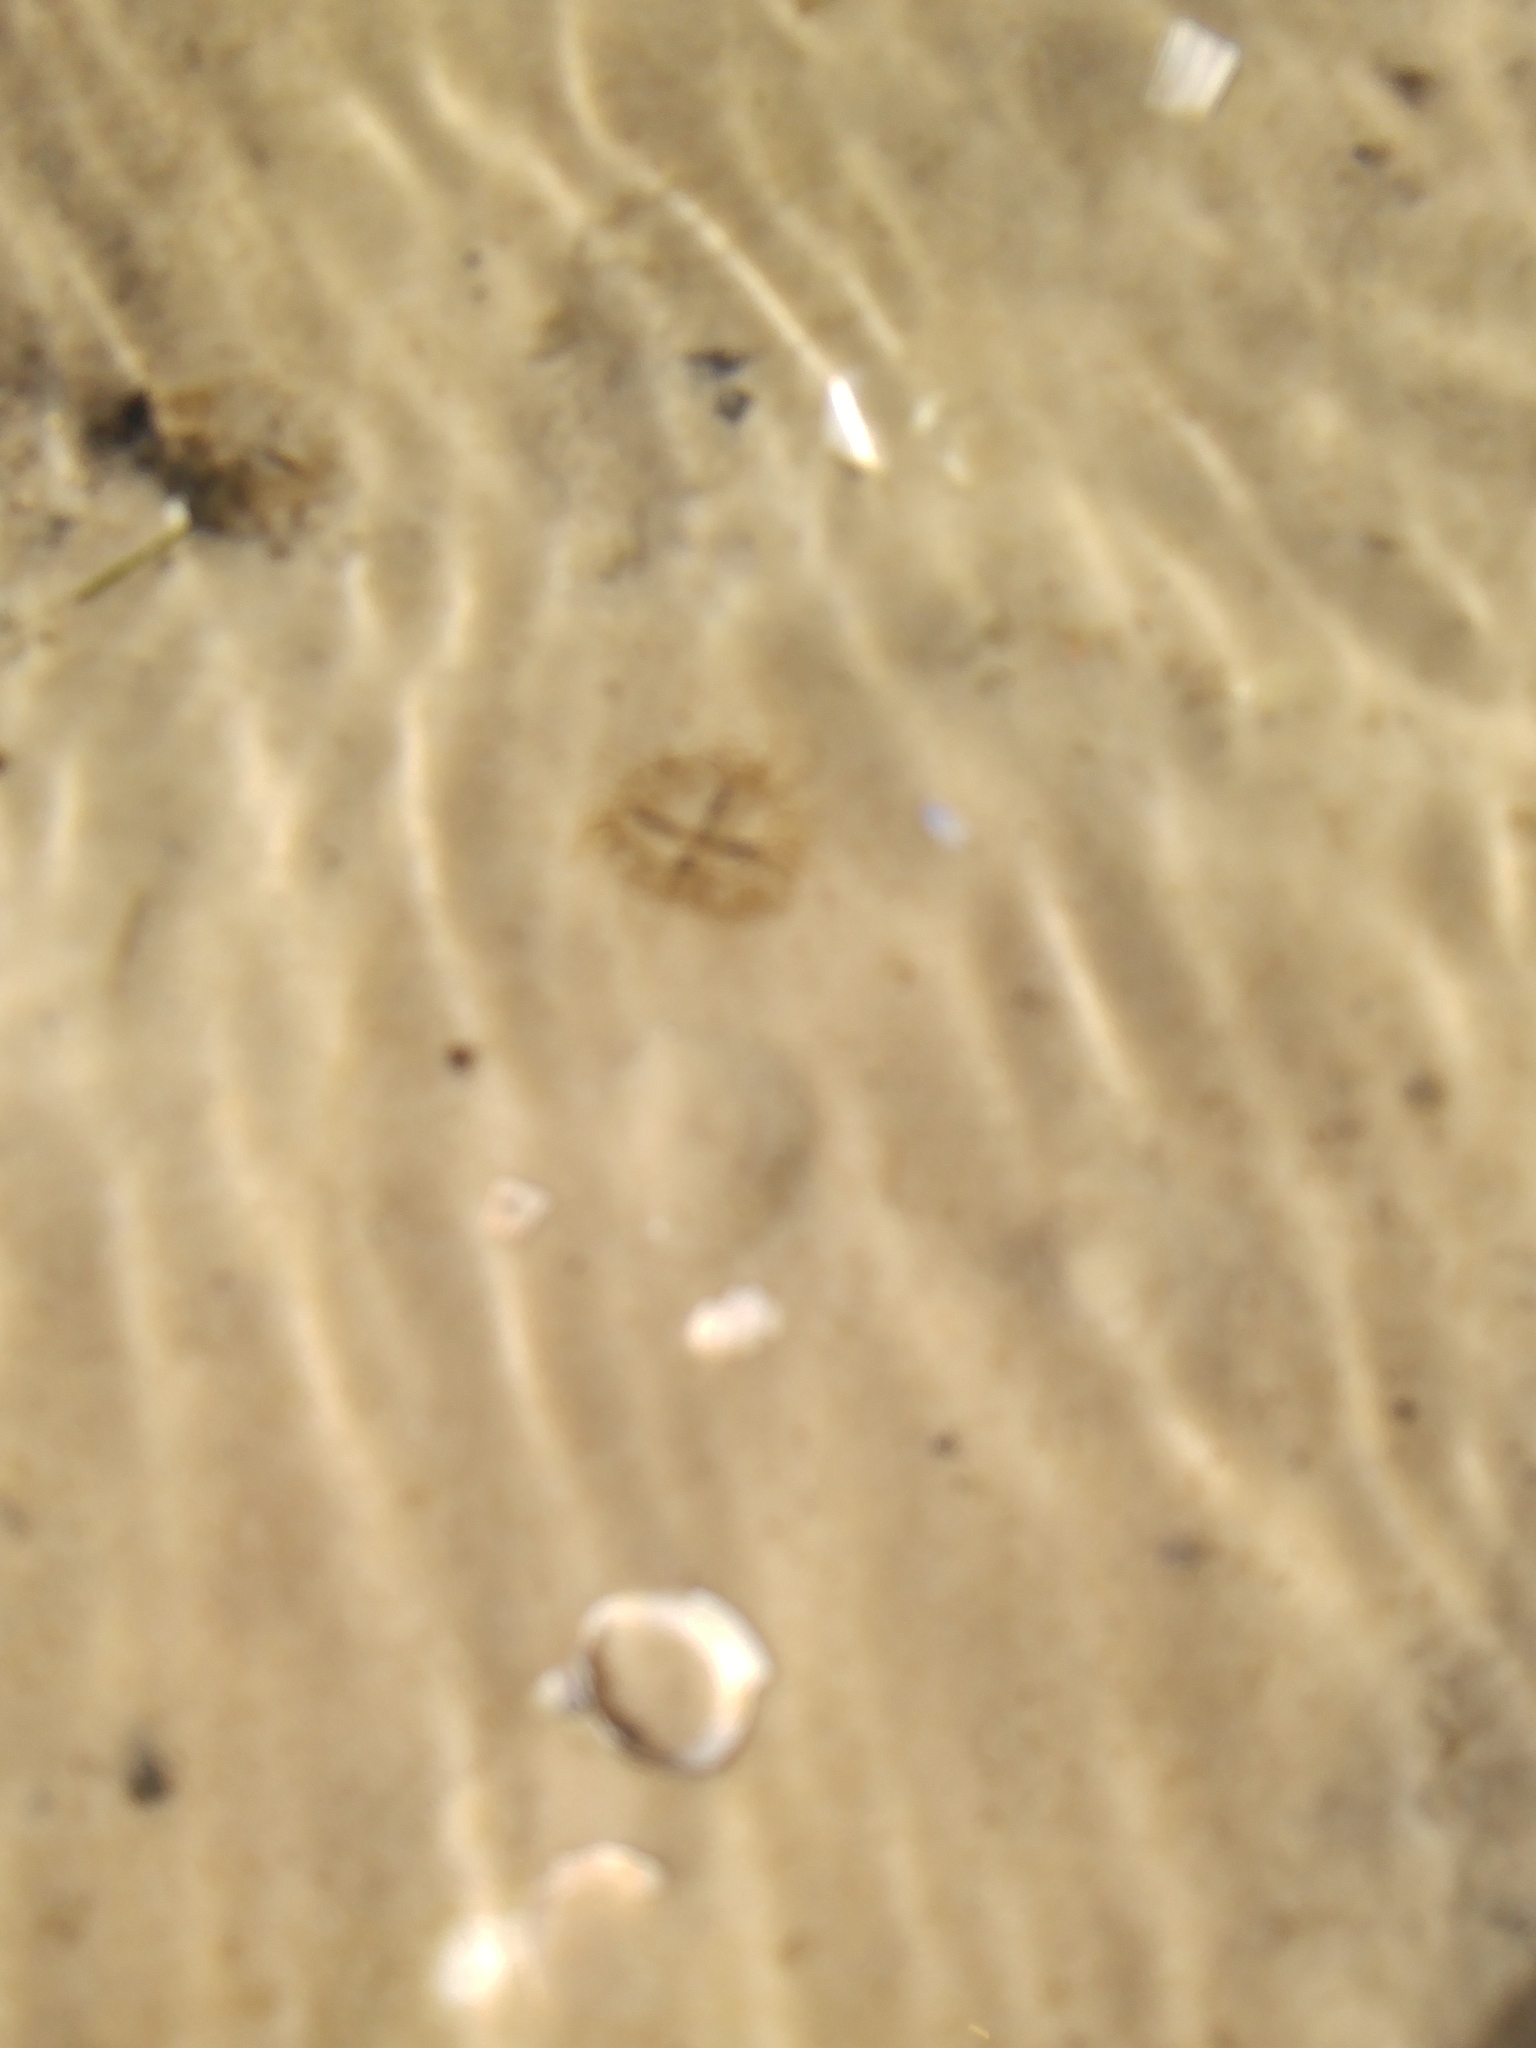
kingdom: Animalia
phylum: Cnidaria
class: Hydrozoa
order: Limnomedusae
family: Olindiidae
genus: Olindias
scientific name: Olindias muelleri
